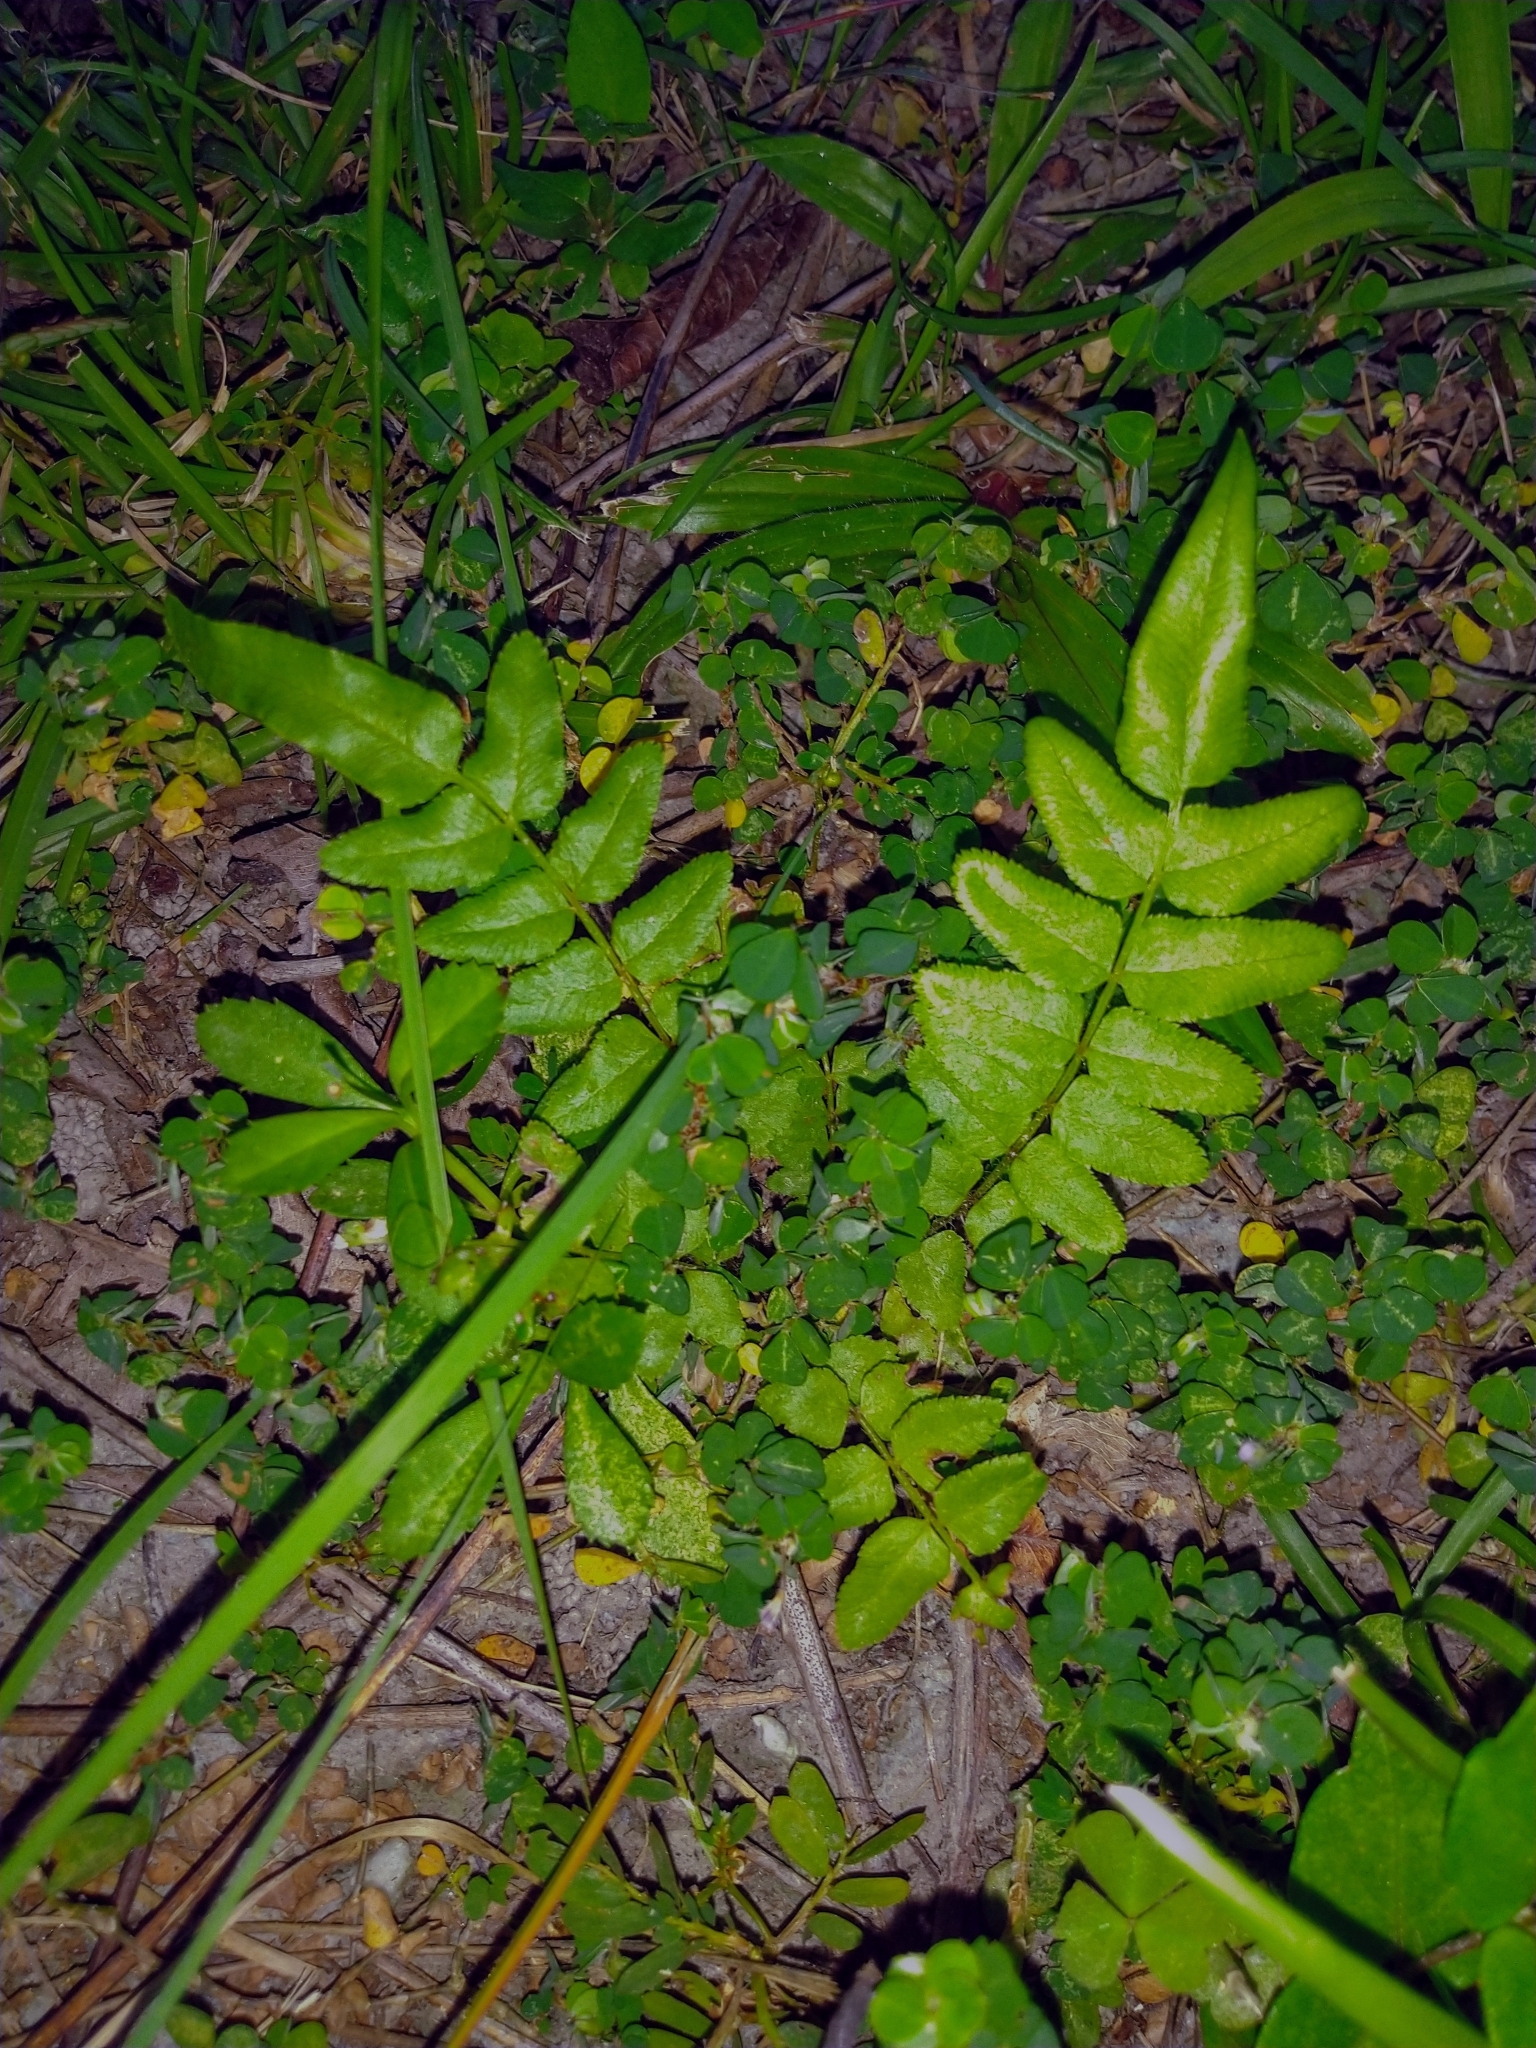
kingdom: Plantae
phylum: Tracheophyta
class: Polypodiopsida
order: Polypodiales
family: Pteridaceae
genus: Pteris
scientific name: Pteris vittata
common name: Ladder brake
